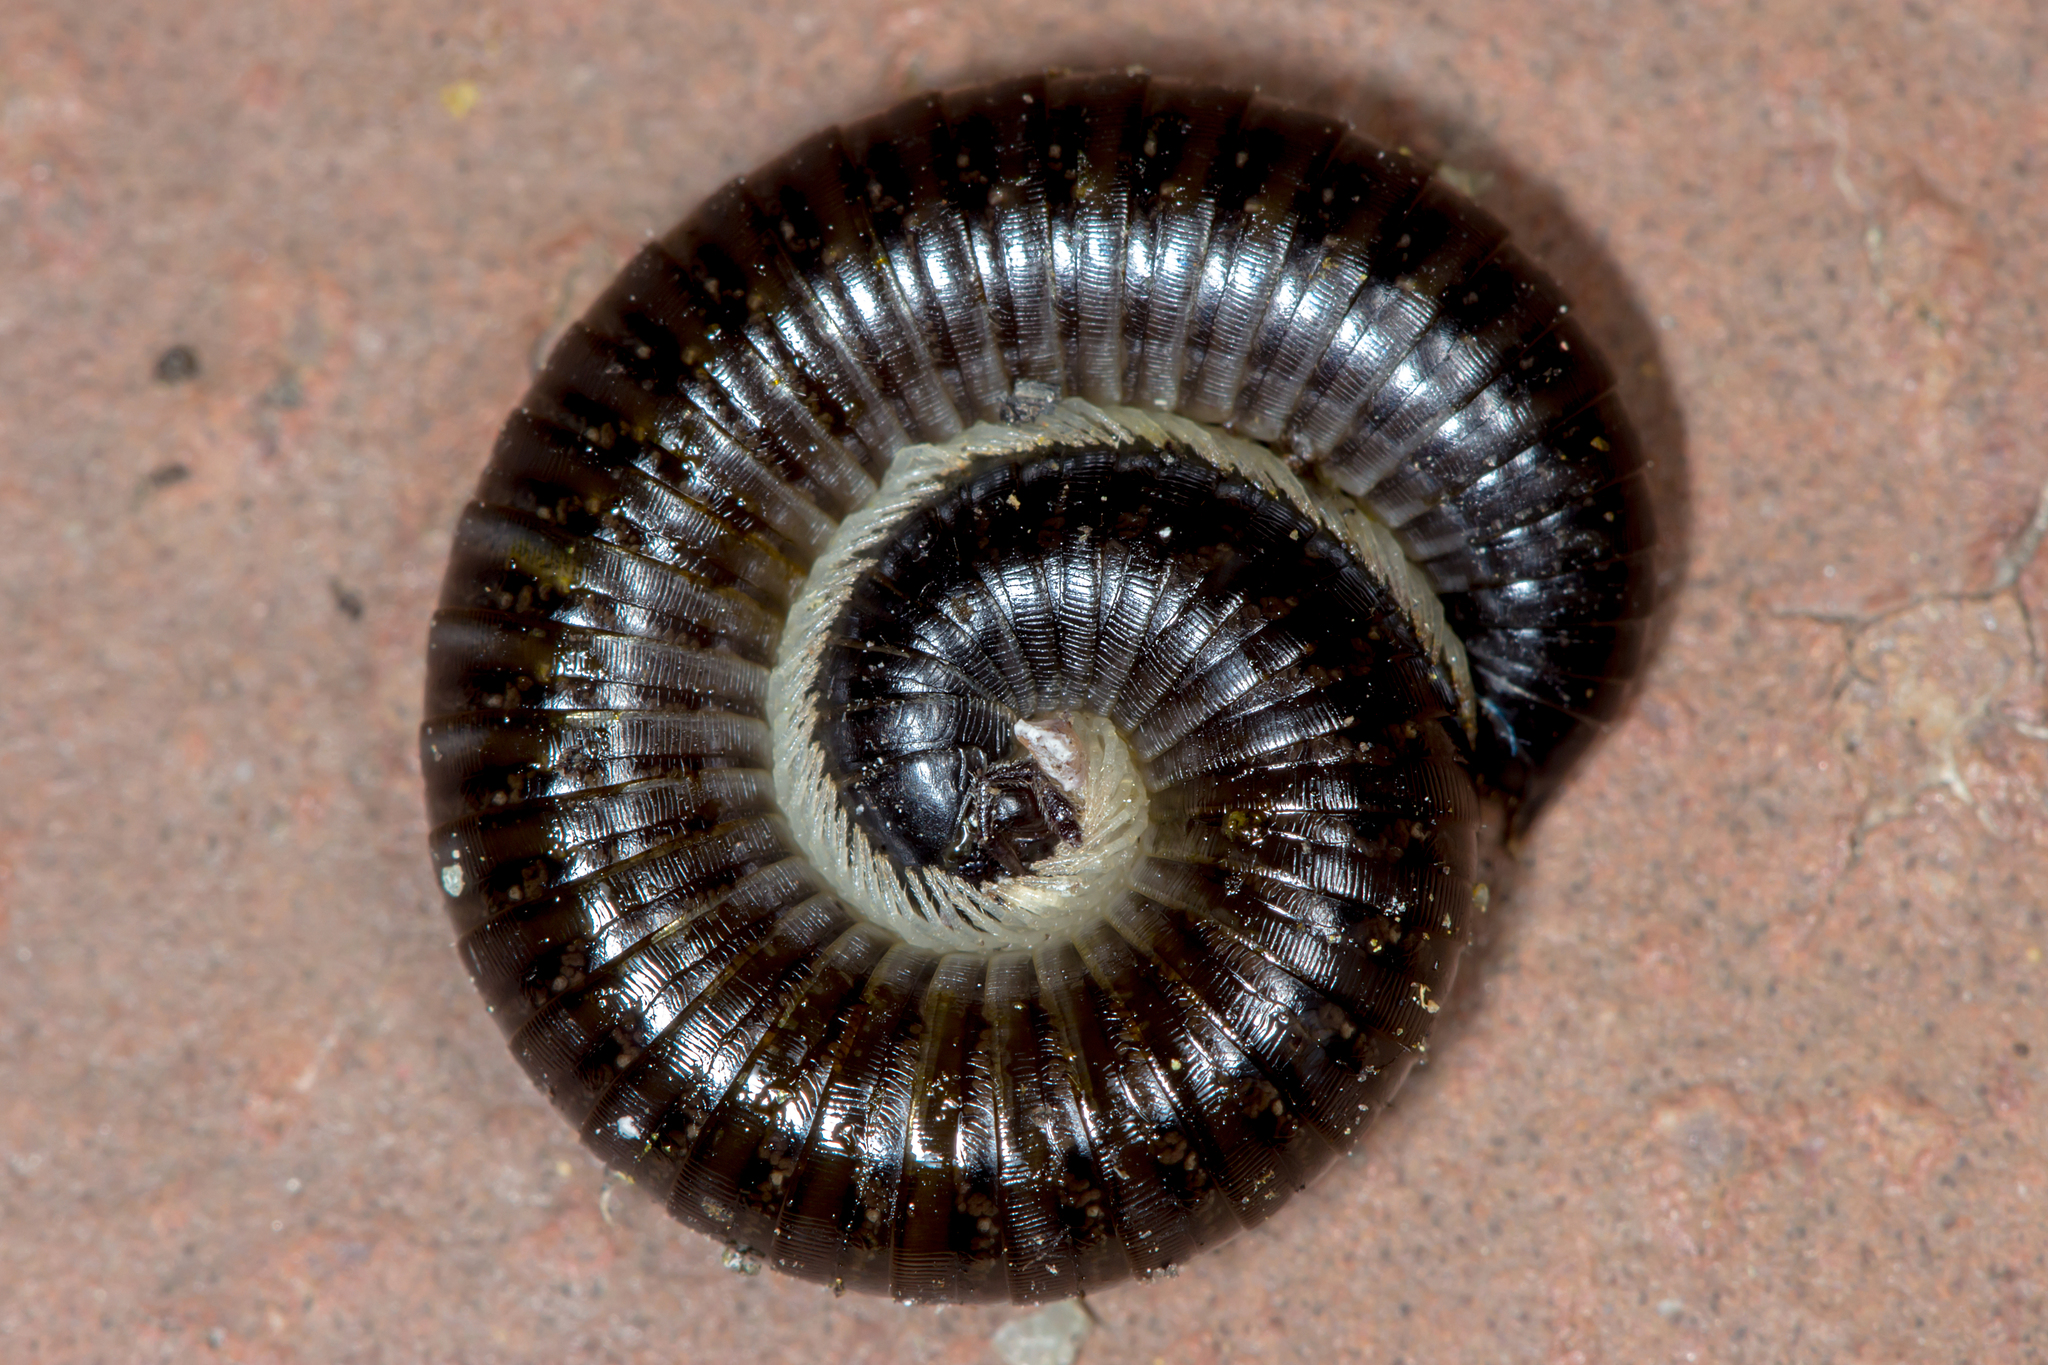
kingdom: Animalia
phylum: Arthropoda
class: Diplopoda
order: Julida
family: Julidae
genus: Ommatoiulus
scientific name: Ommatoiulus moreleti
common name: Portuguese millipede
